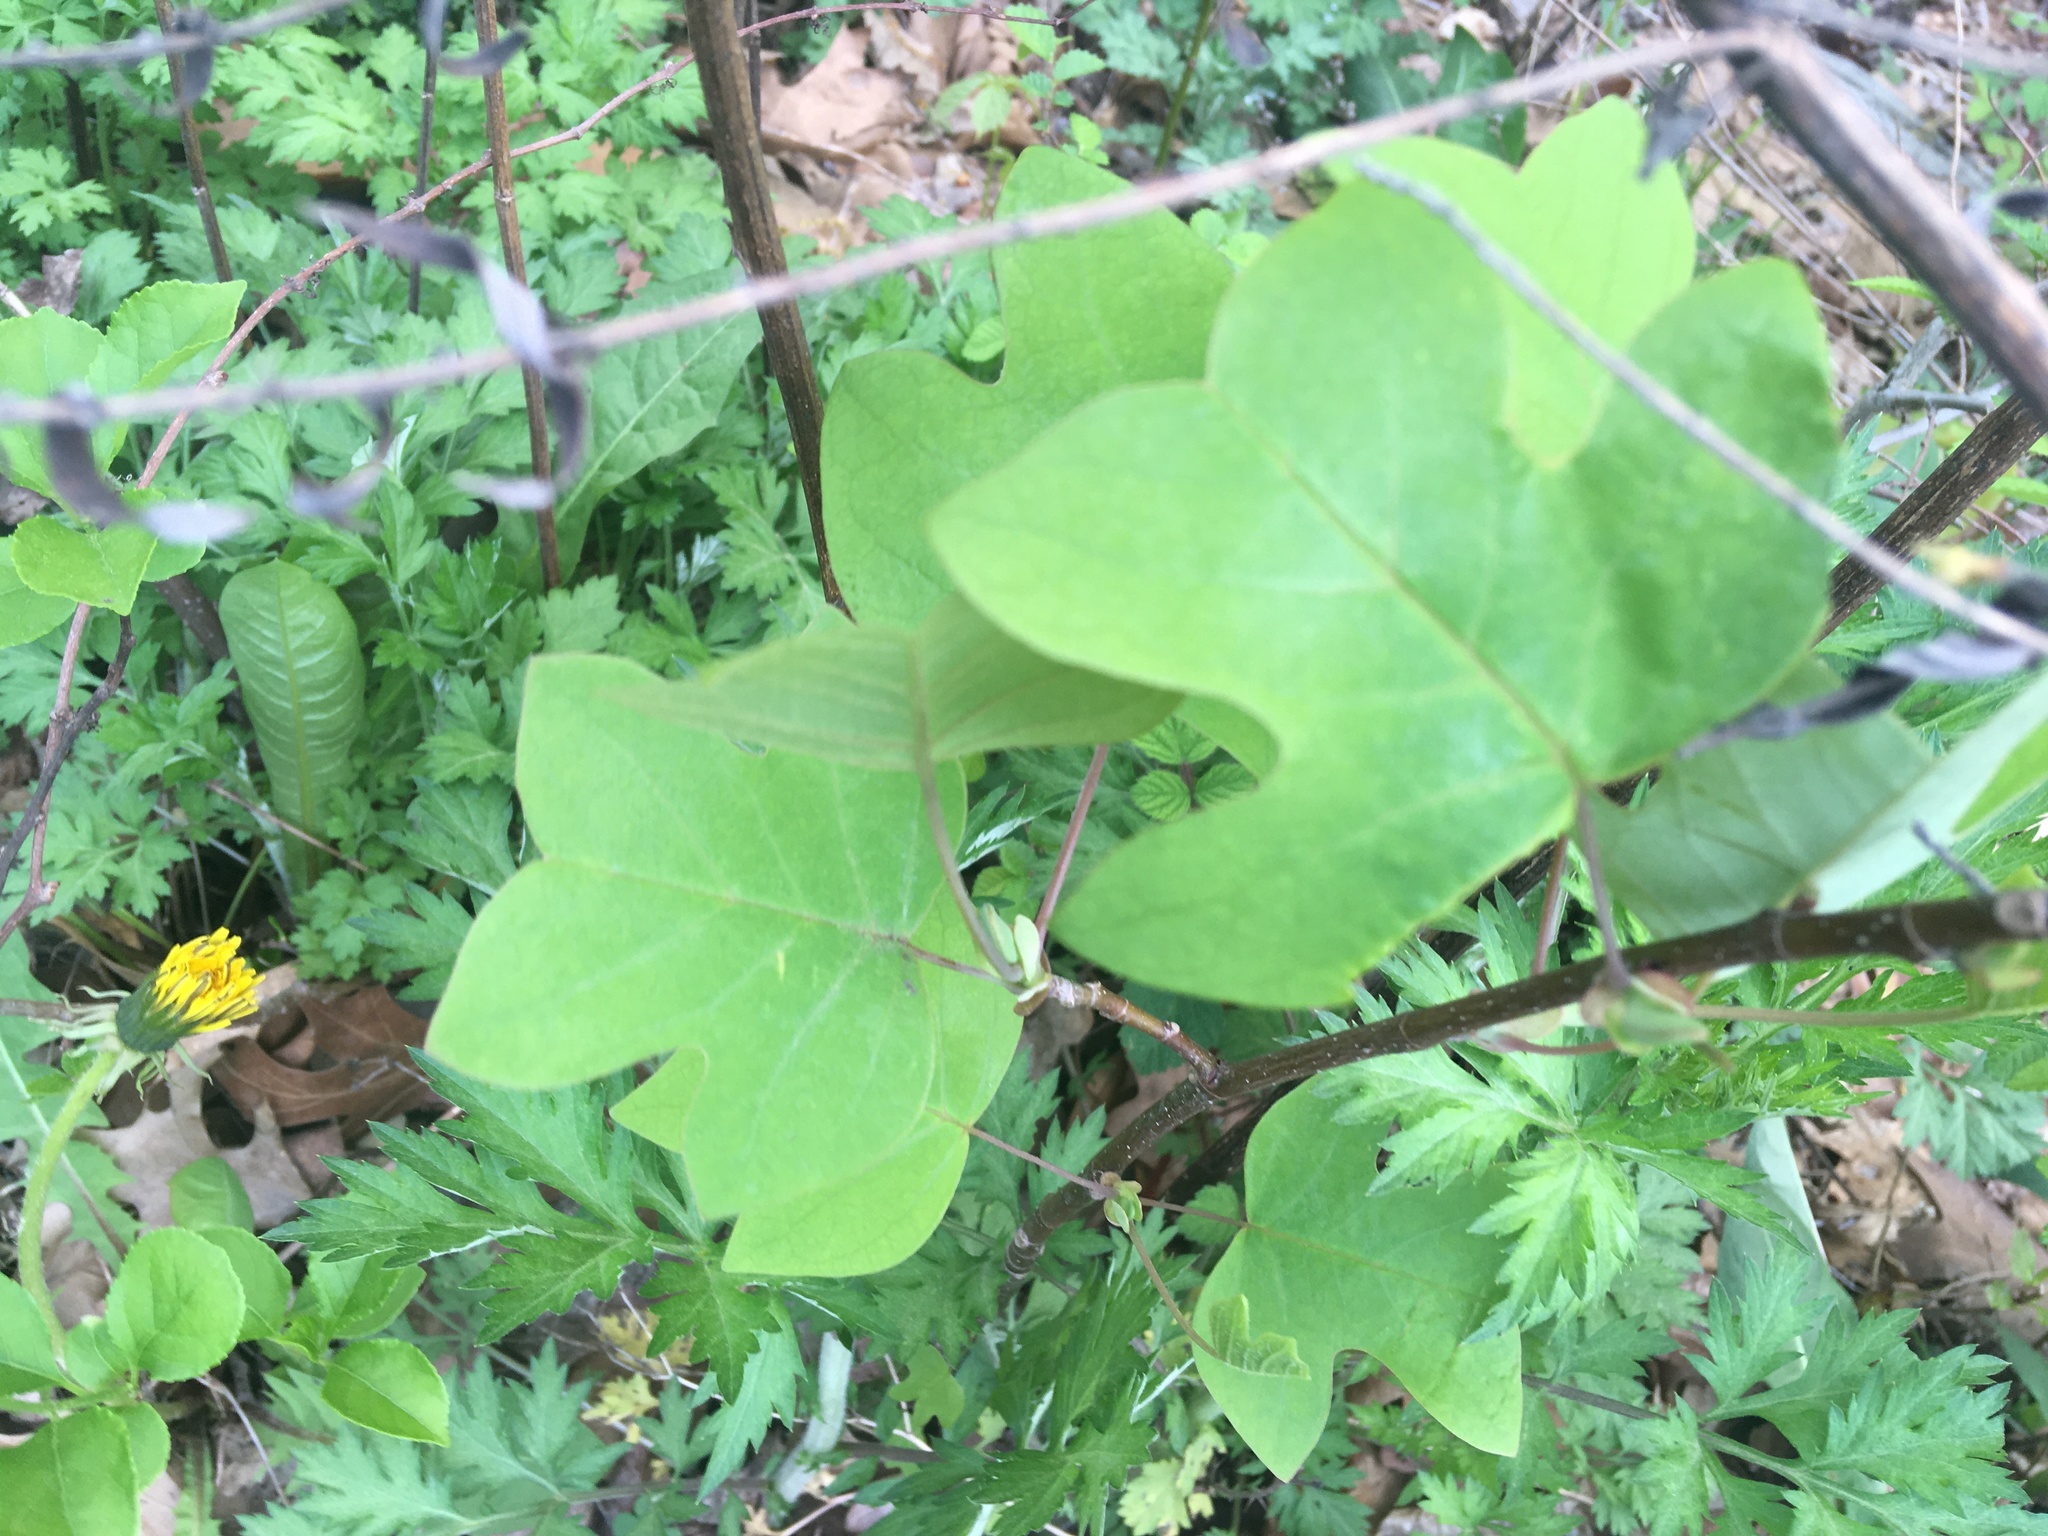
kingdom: Plantae
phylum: Tracheophyta
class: Magnoliopsida
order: Magnoliales
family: Magnoliaceae
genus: Liriodendron
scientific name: Liriodendron tulipifera
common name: Tulip tree
